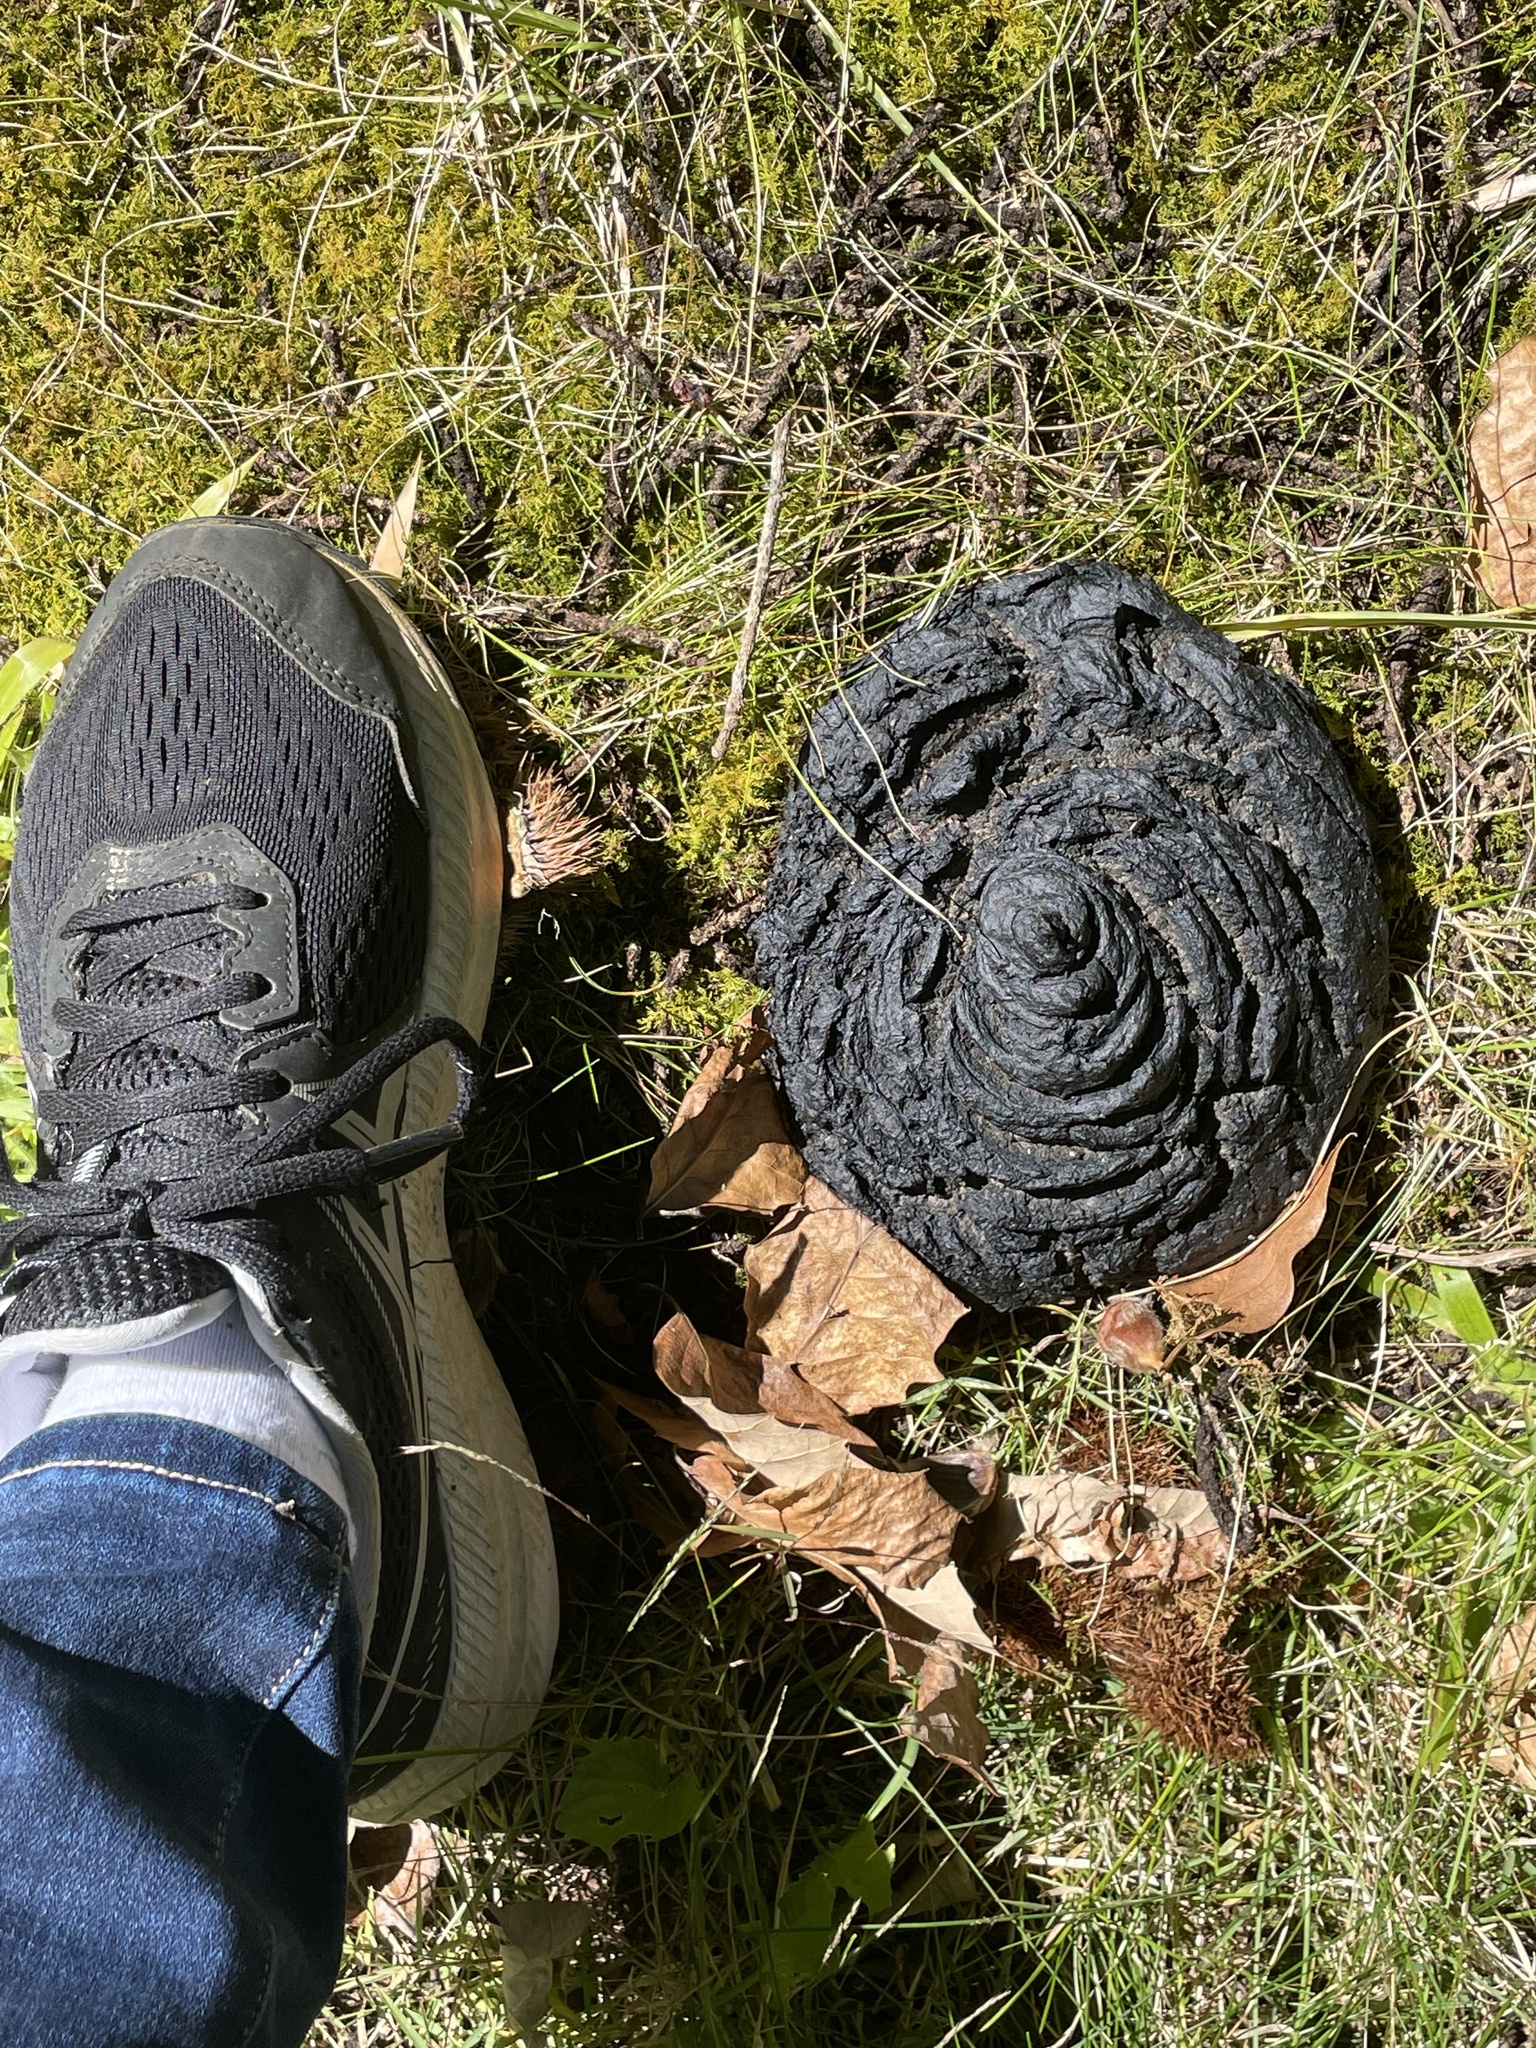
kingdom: Animalia
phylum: Chordata
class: Mammalia
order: Carnivora
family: Ursidae
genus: Ursus
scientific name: Ursus americanus
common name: American black bear
